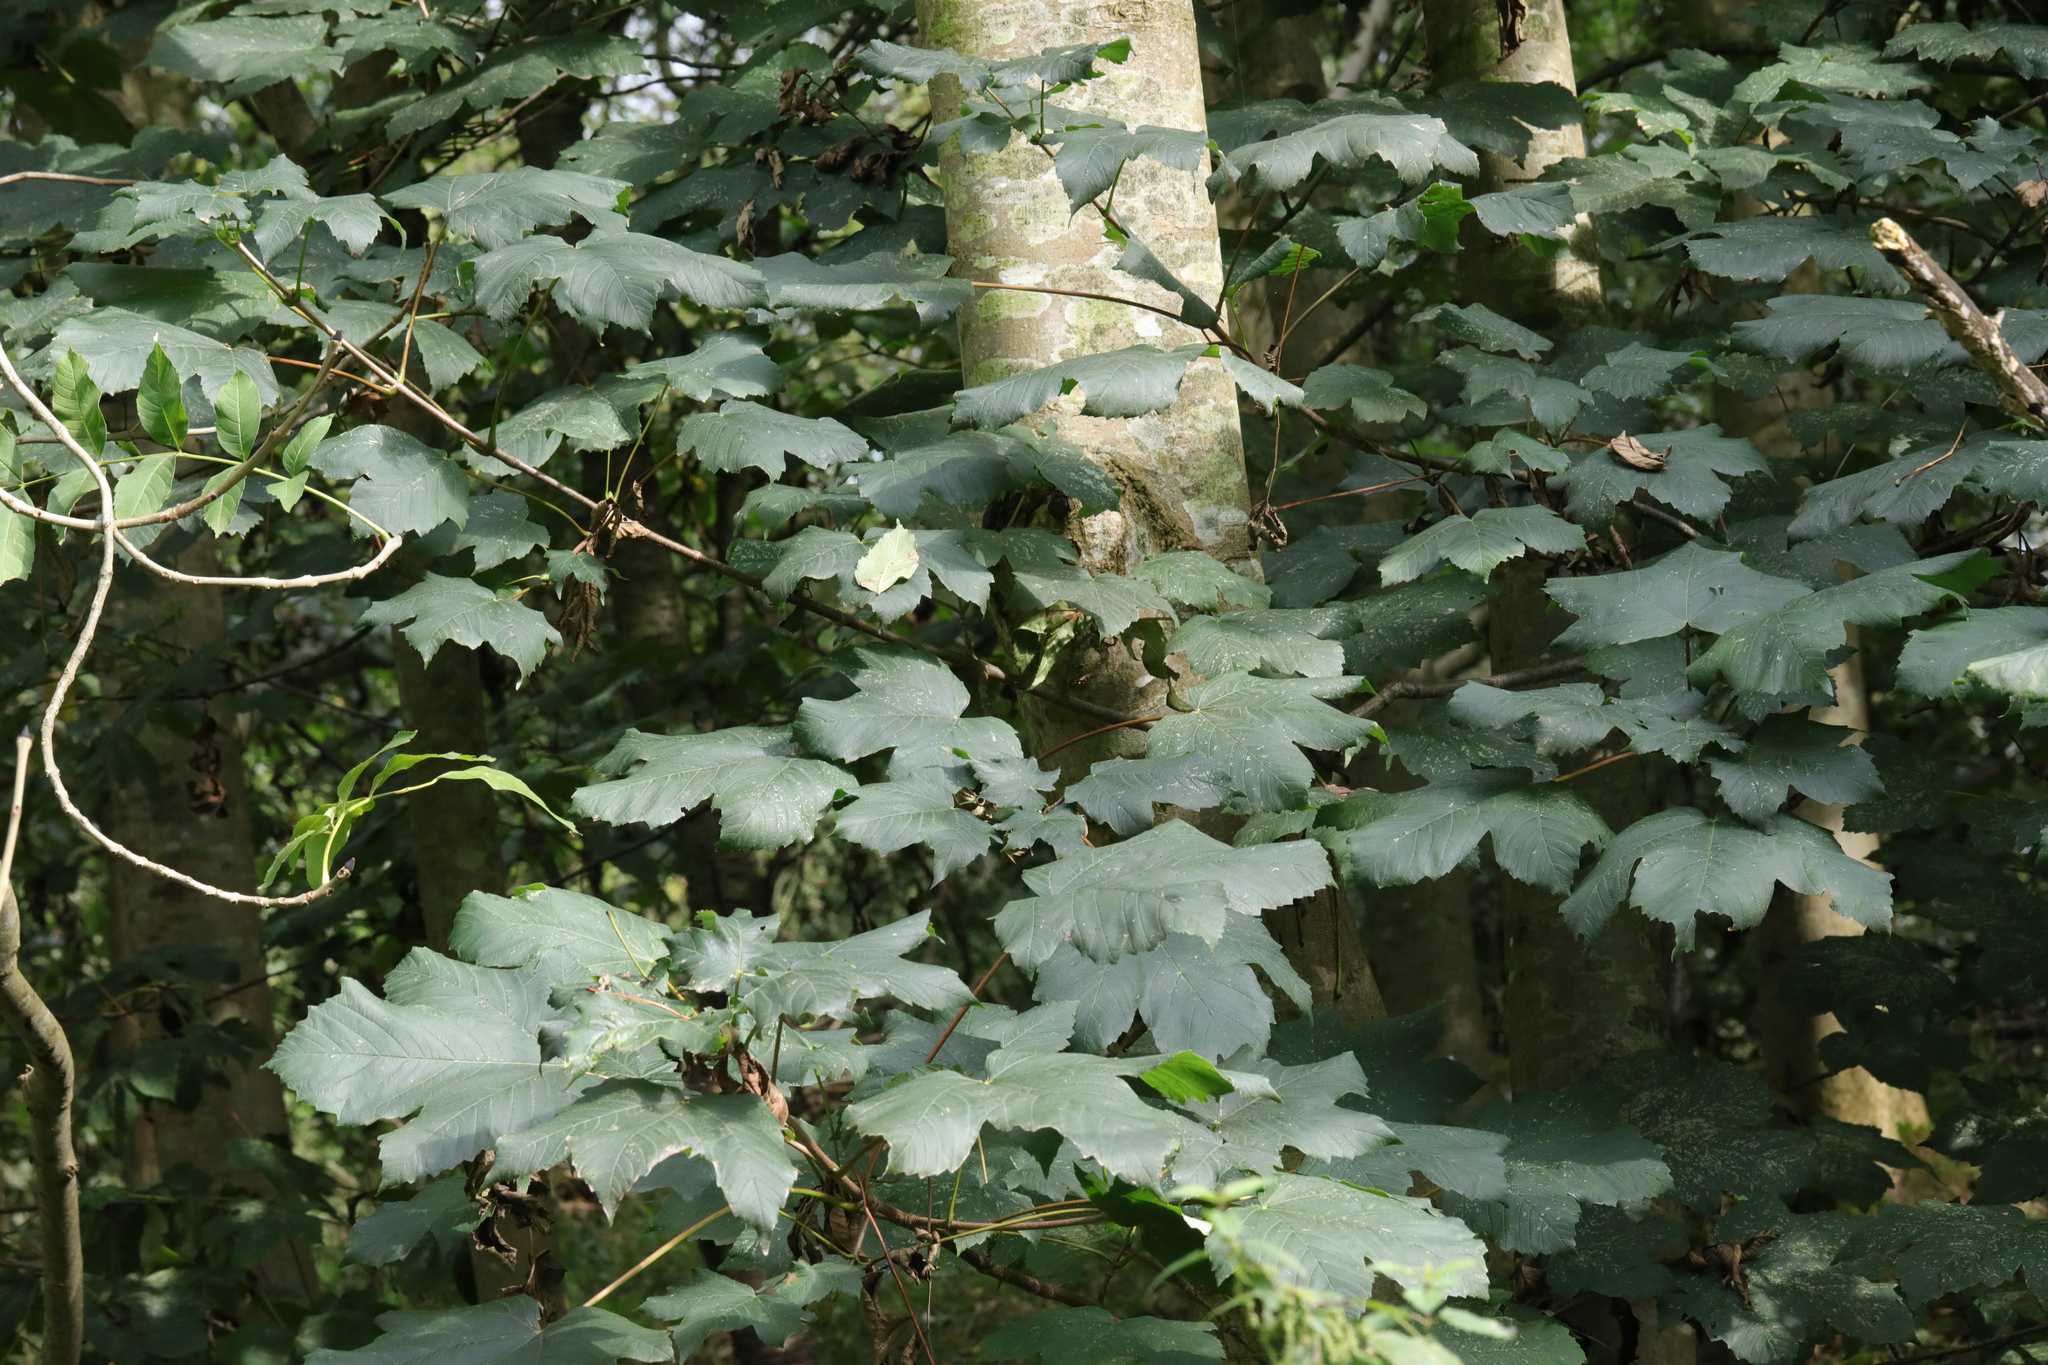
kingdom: Plantae
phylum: Tracheophyta
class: Magnoliopsida
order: Sapindales
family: Sapindaceae
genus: Acer
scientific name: Acer pseudoplatanus
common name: Sycamore
